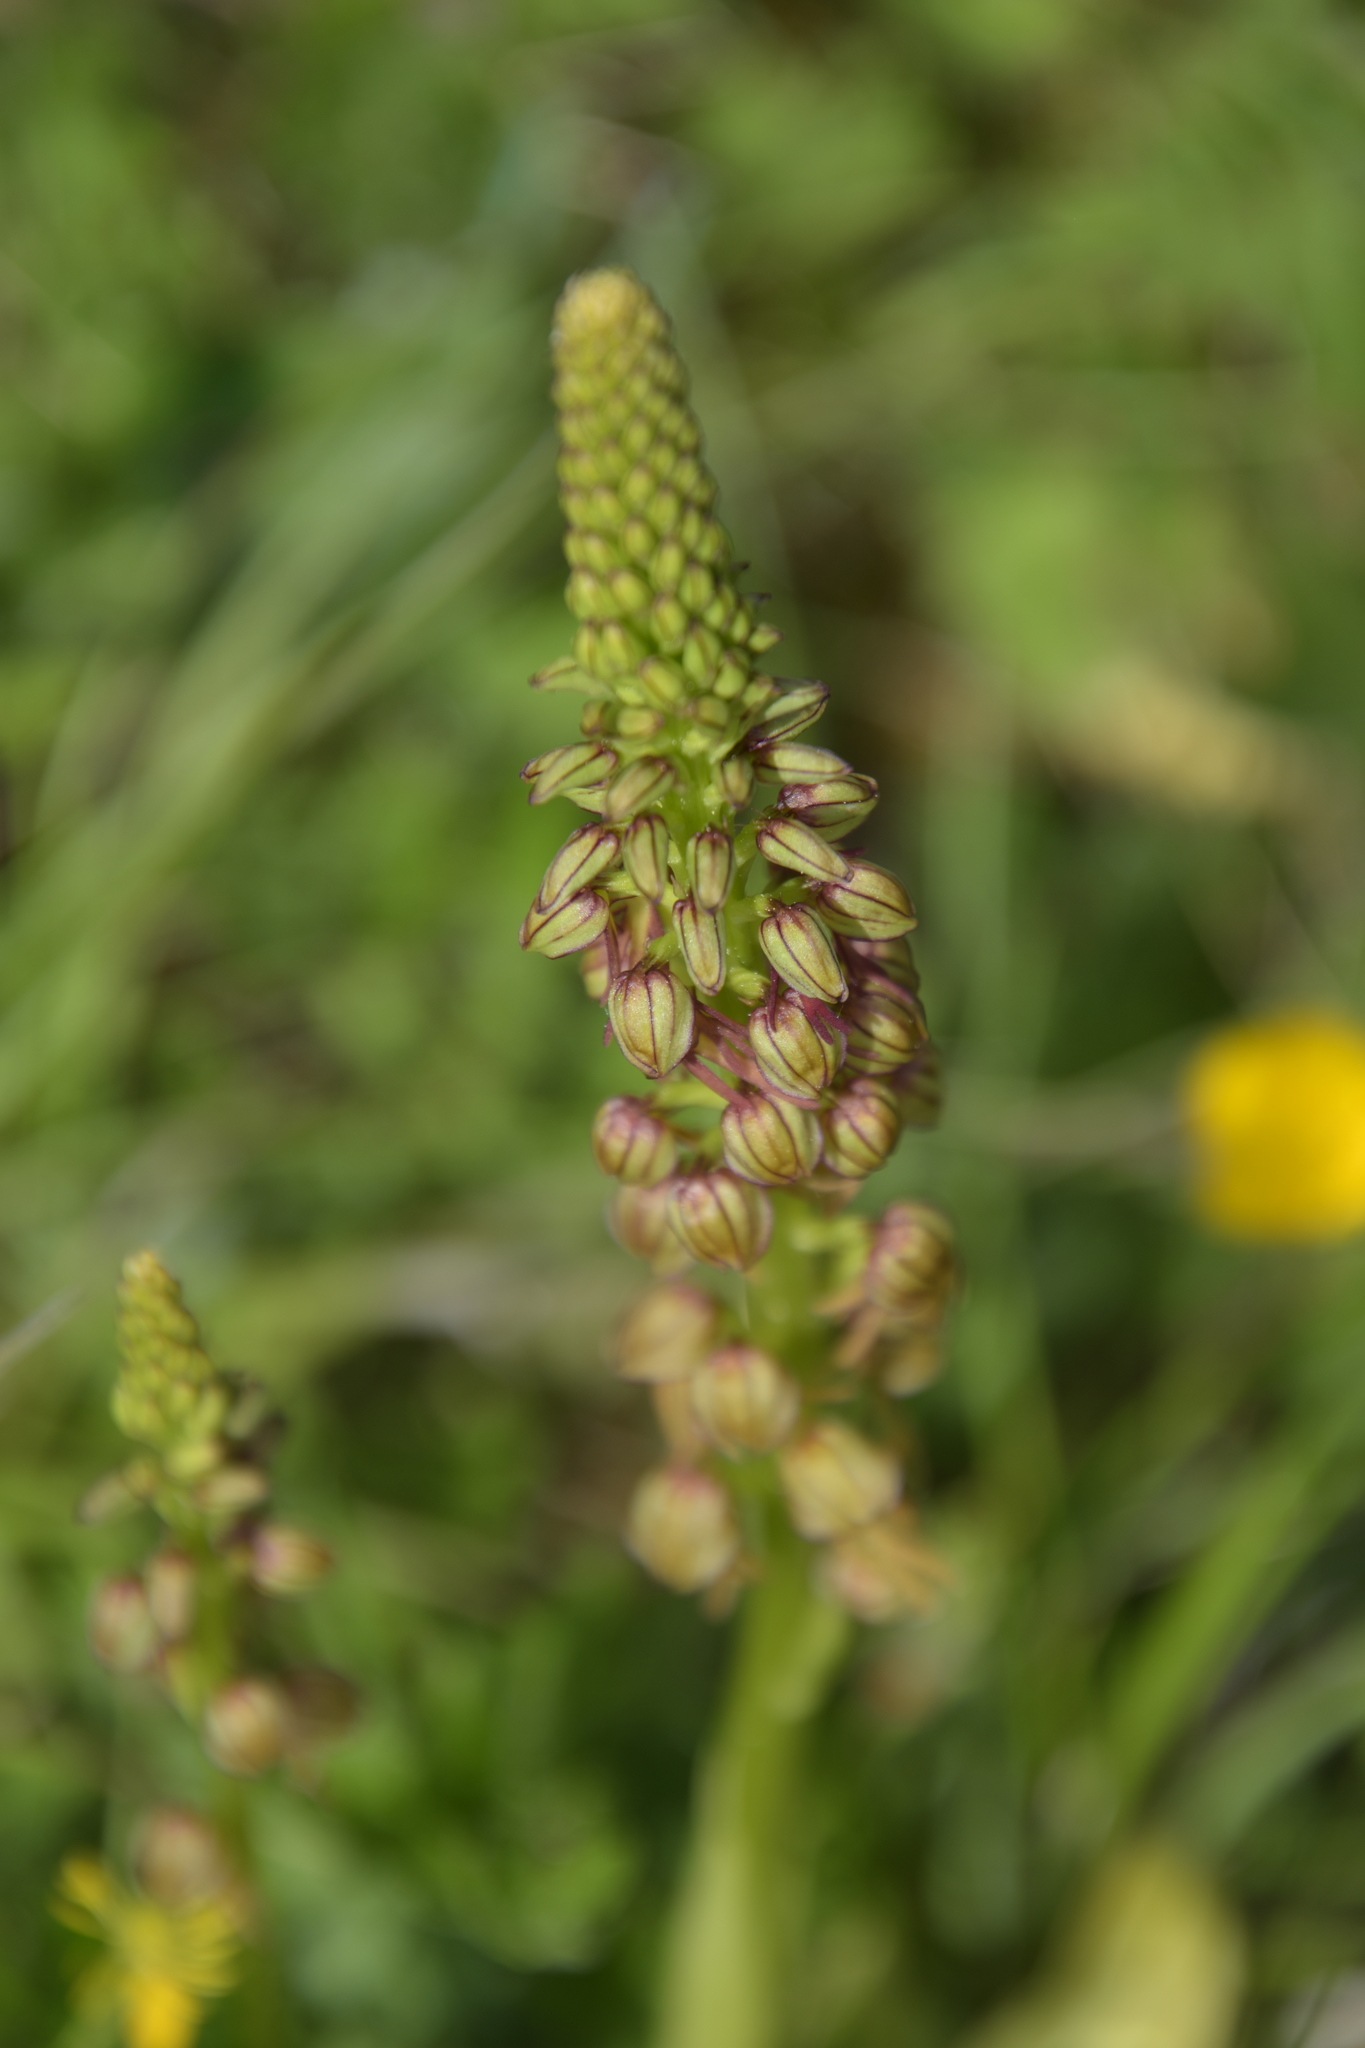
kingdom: Plantae
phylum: Tracheophyta
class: Liliopsida
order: Asparagales
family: Orchidaceae
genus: Orchis
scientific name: Orchis anthropophora
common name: Man orchid
